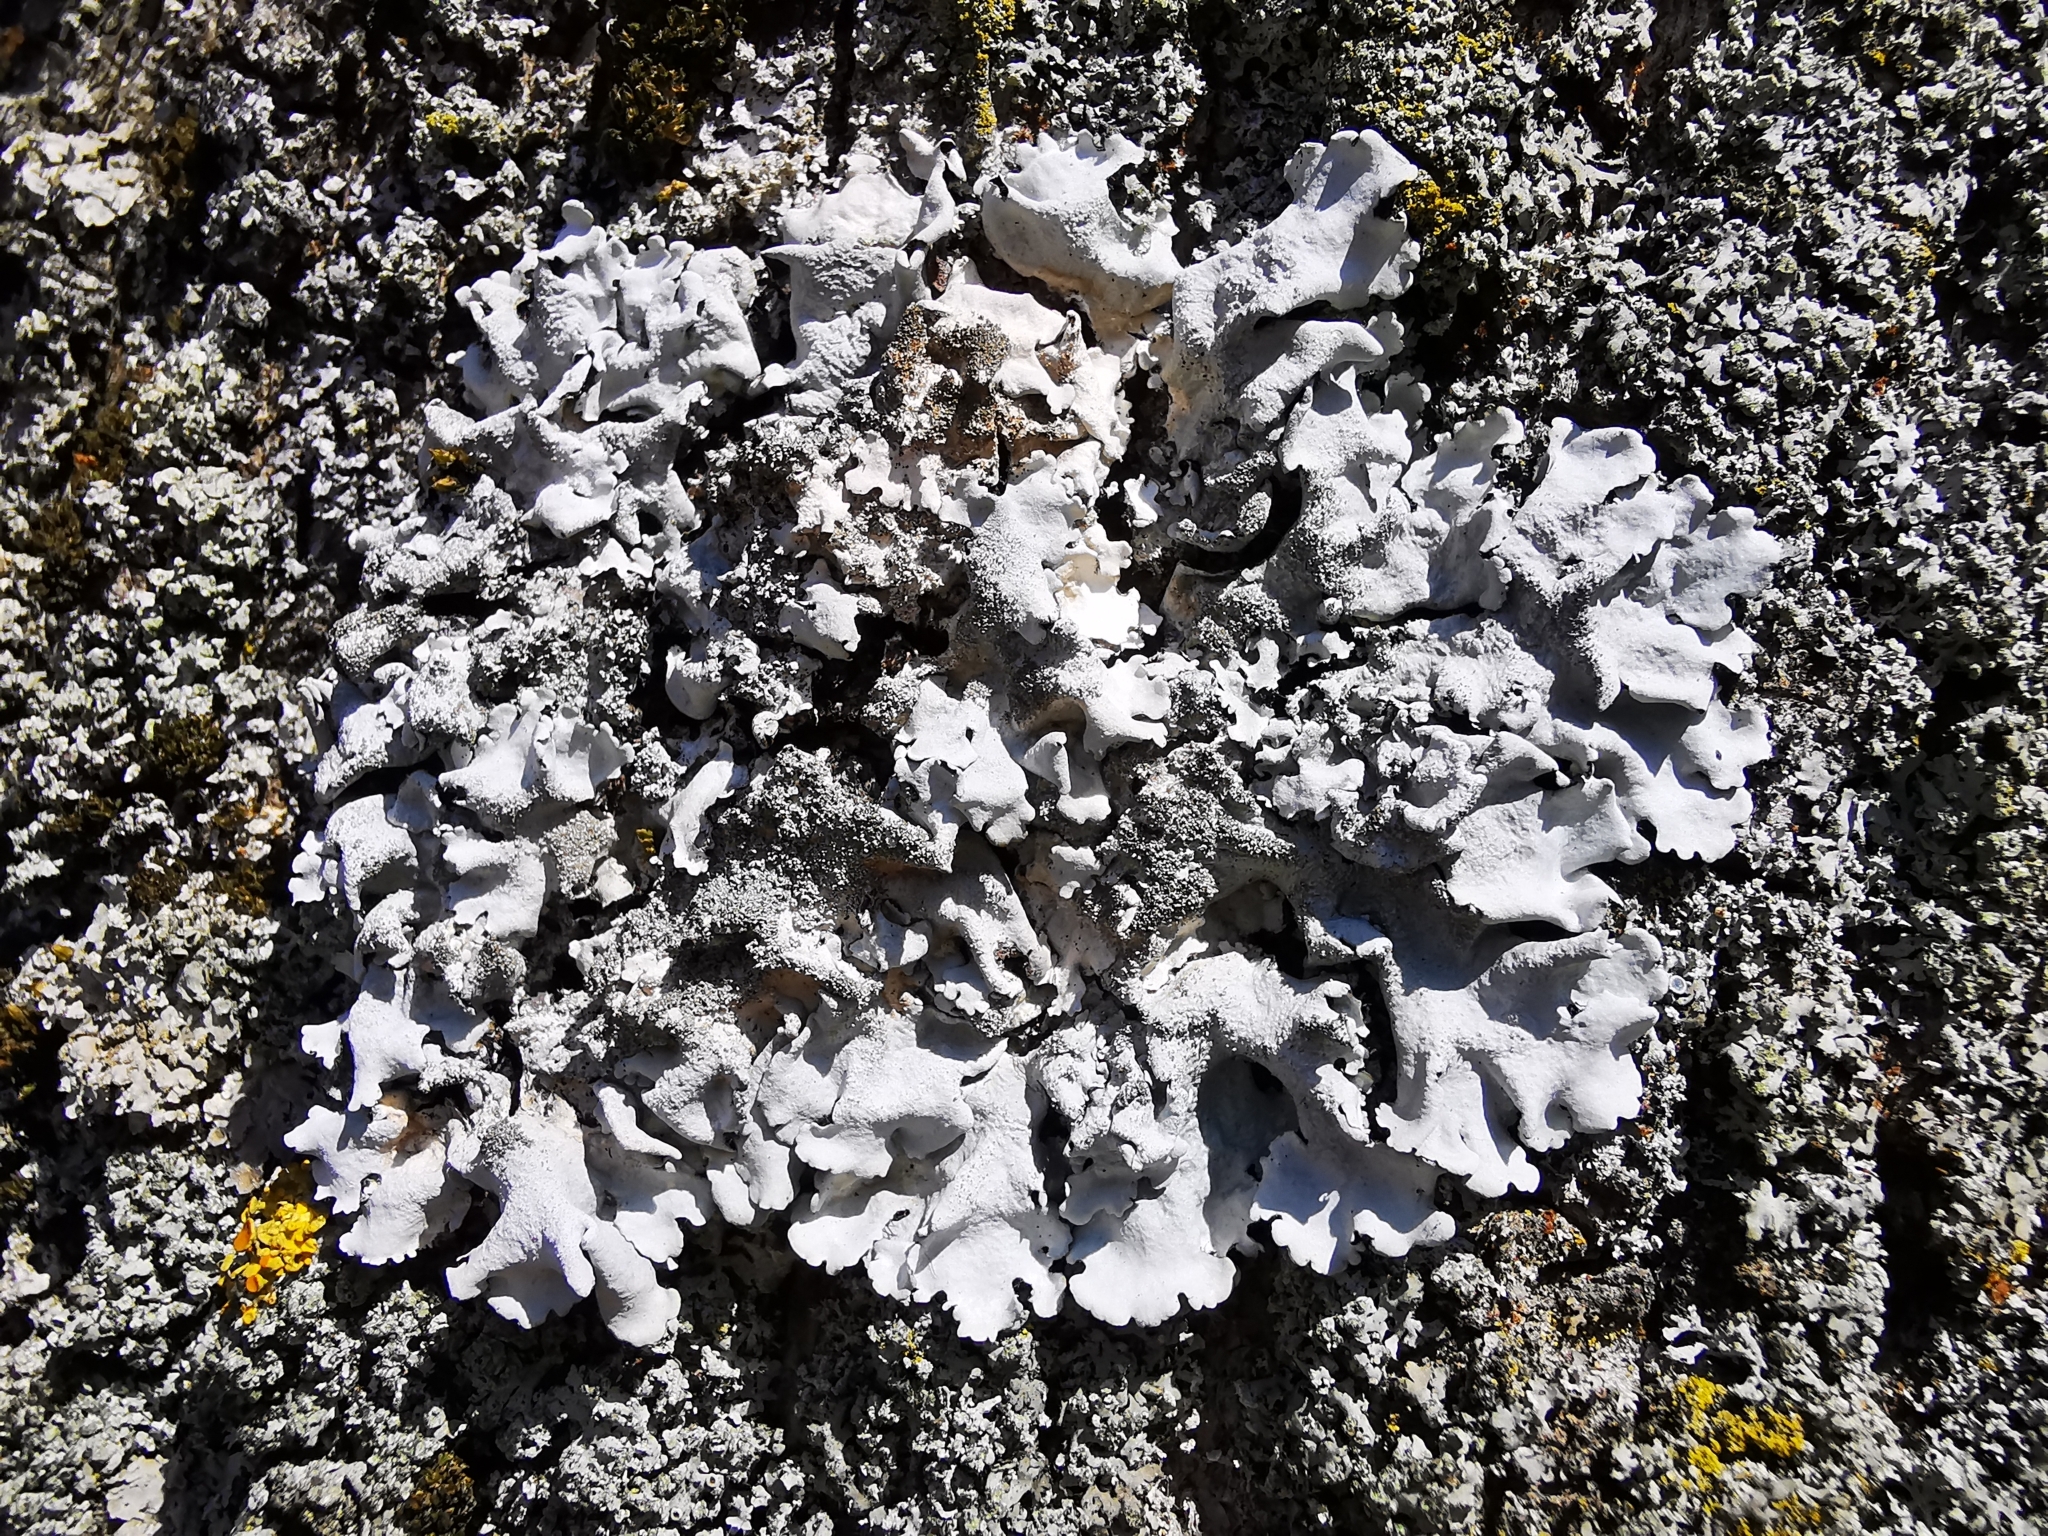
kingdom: Fungi
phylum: Ascomycota
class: Lecanoromycetes
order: Lecanorales
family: Parmeliaceae
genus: Parmelina
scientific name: Parmelina tiliacea
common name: Linden shield lichen
